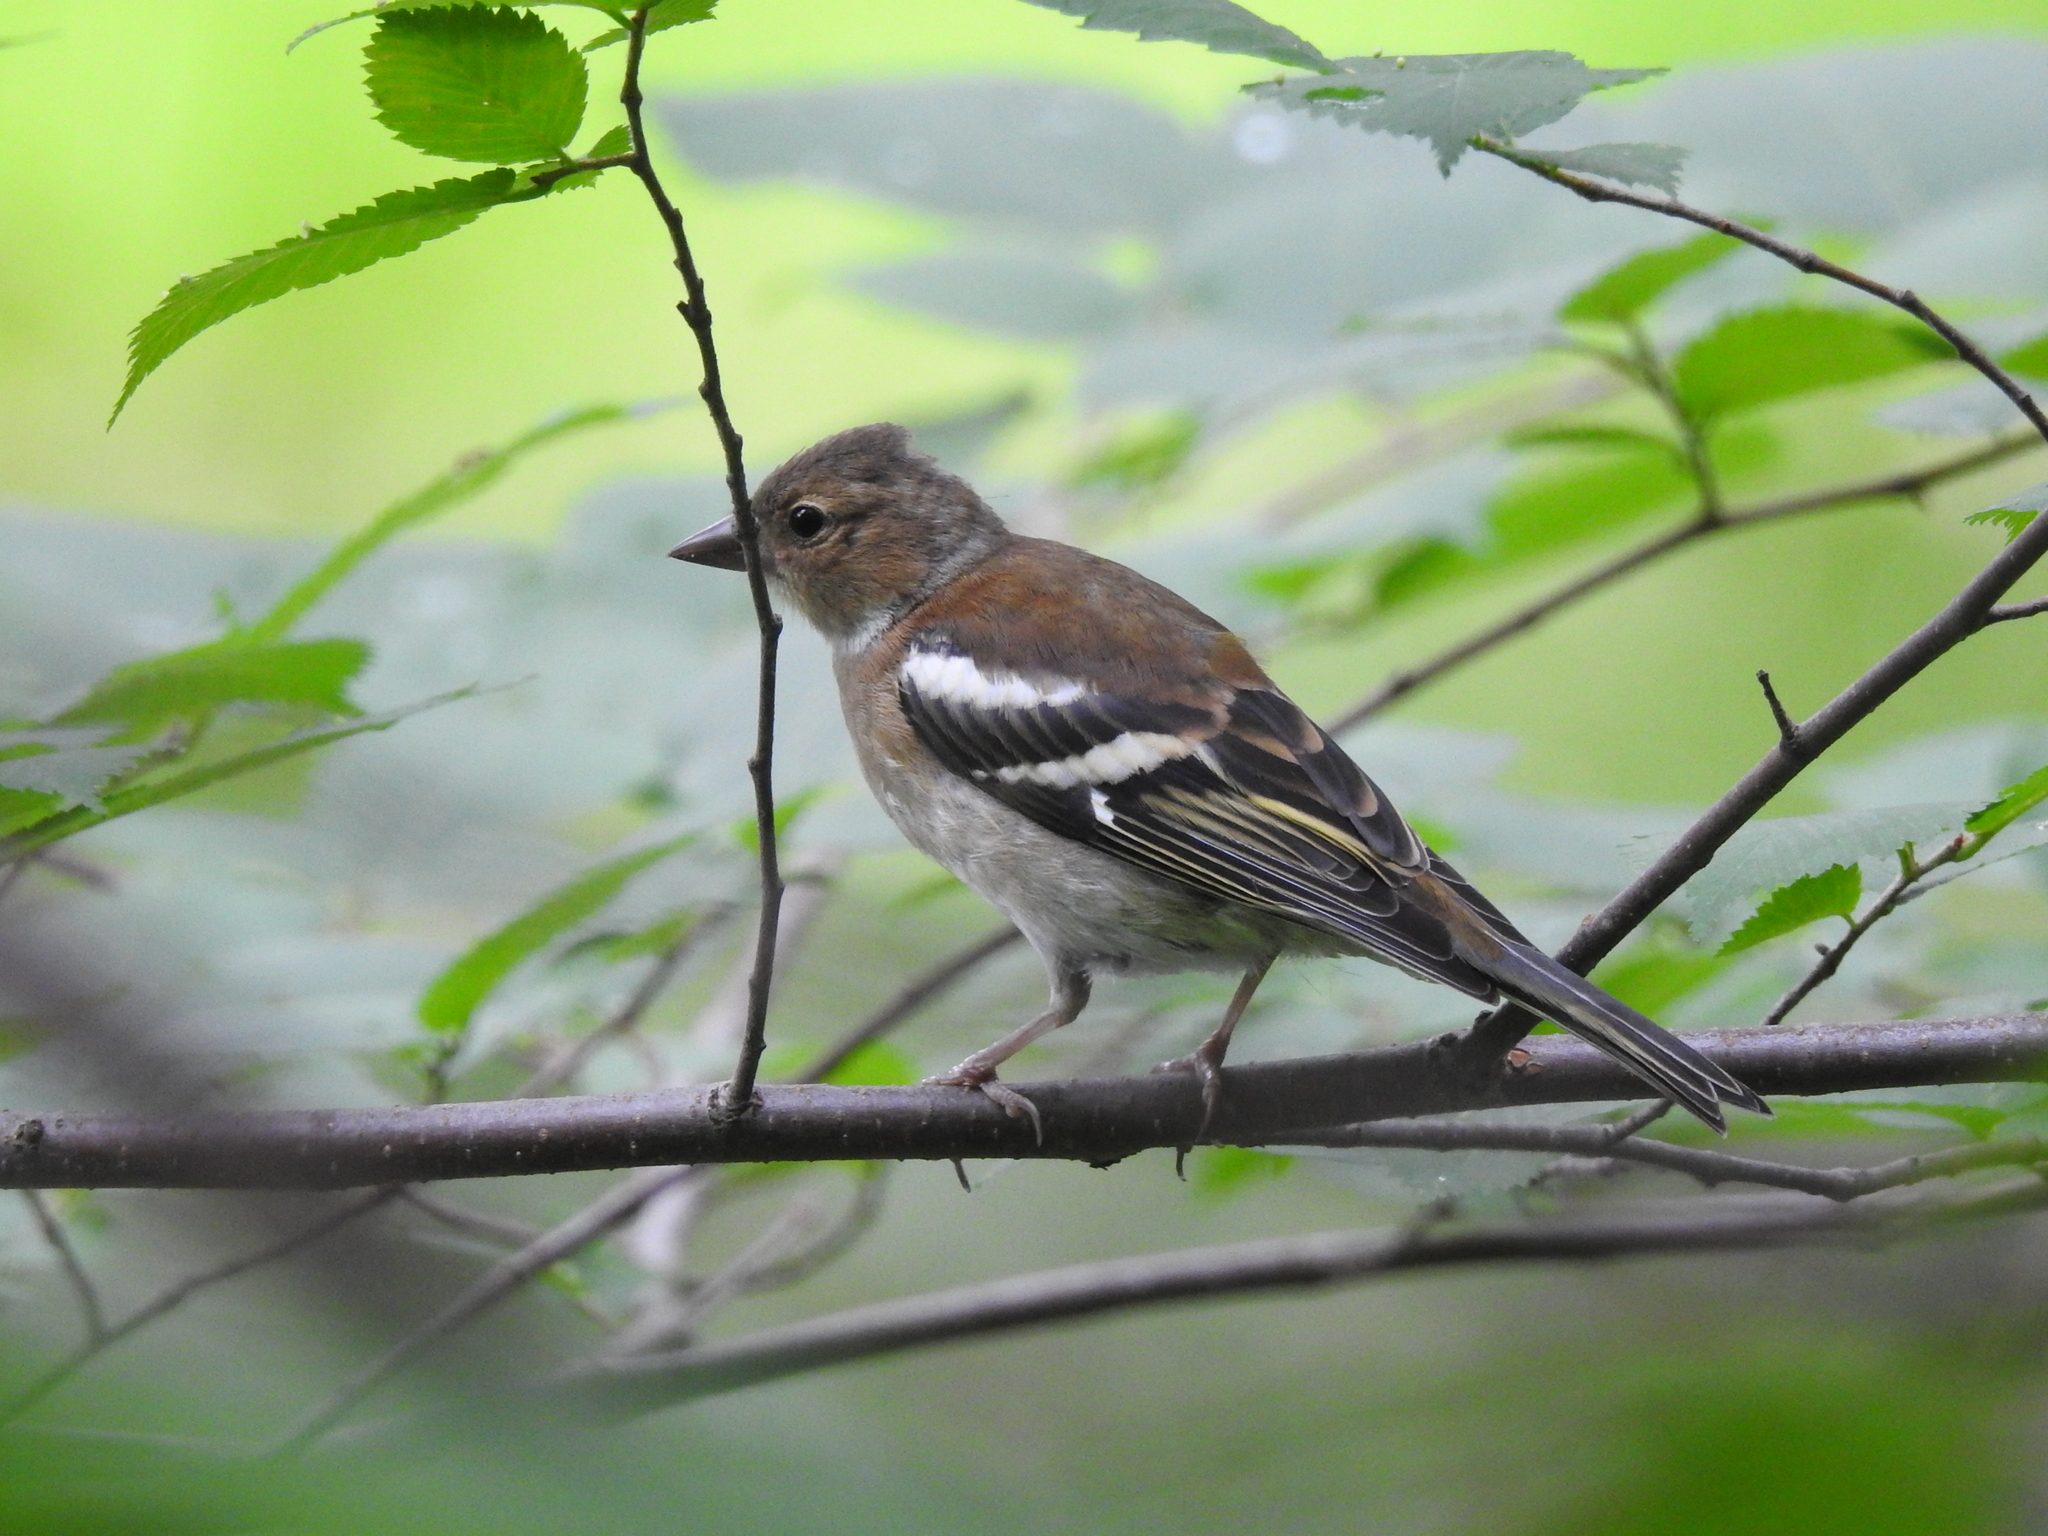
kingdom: Animalia
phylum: Chordata
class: Aves
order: Passeriformes
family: Fringillidae
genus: Fringilla
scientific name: Fringilla coelebs
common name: Common chaffinch
